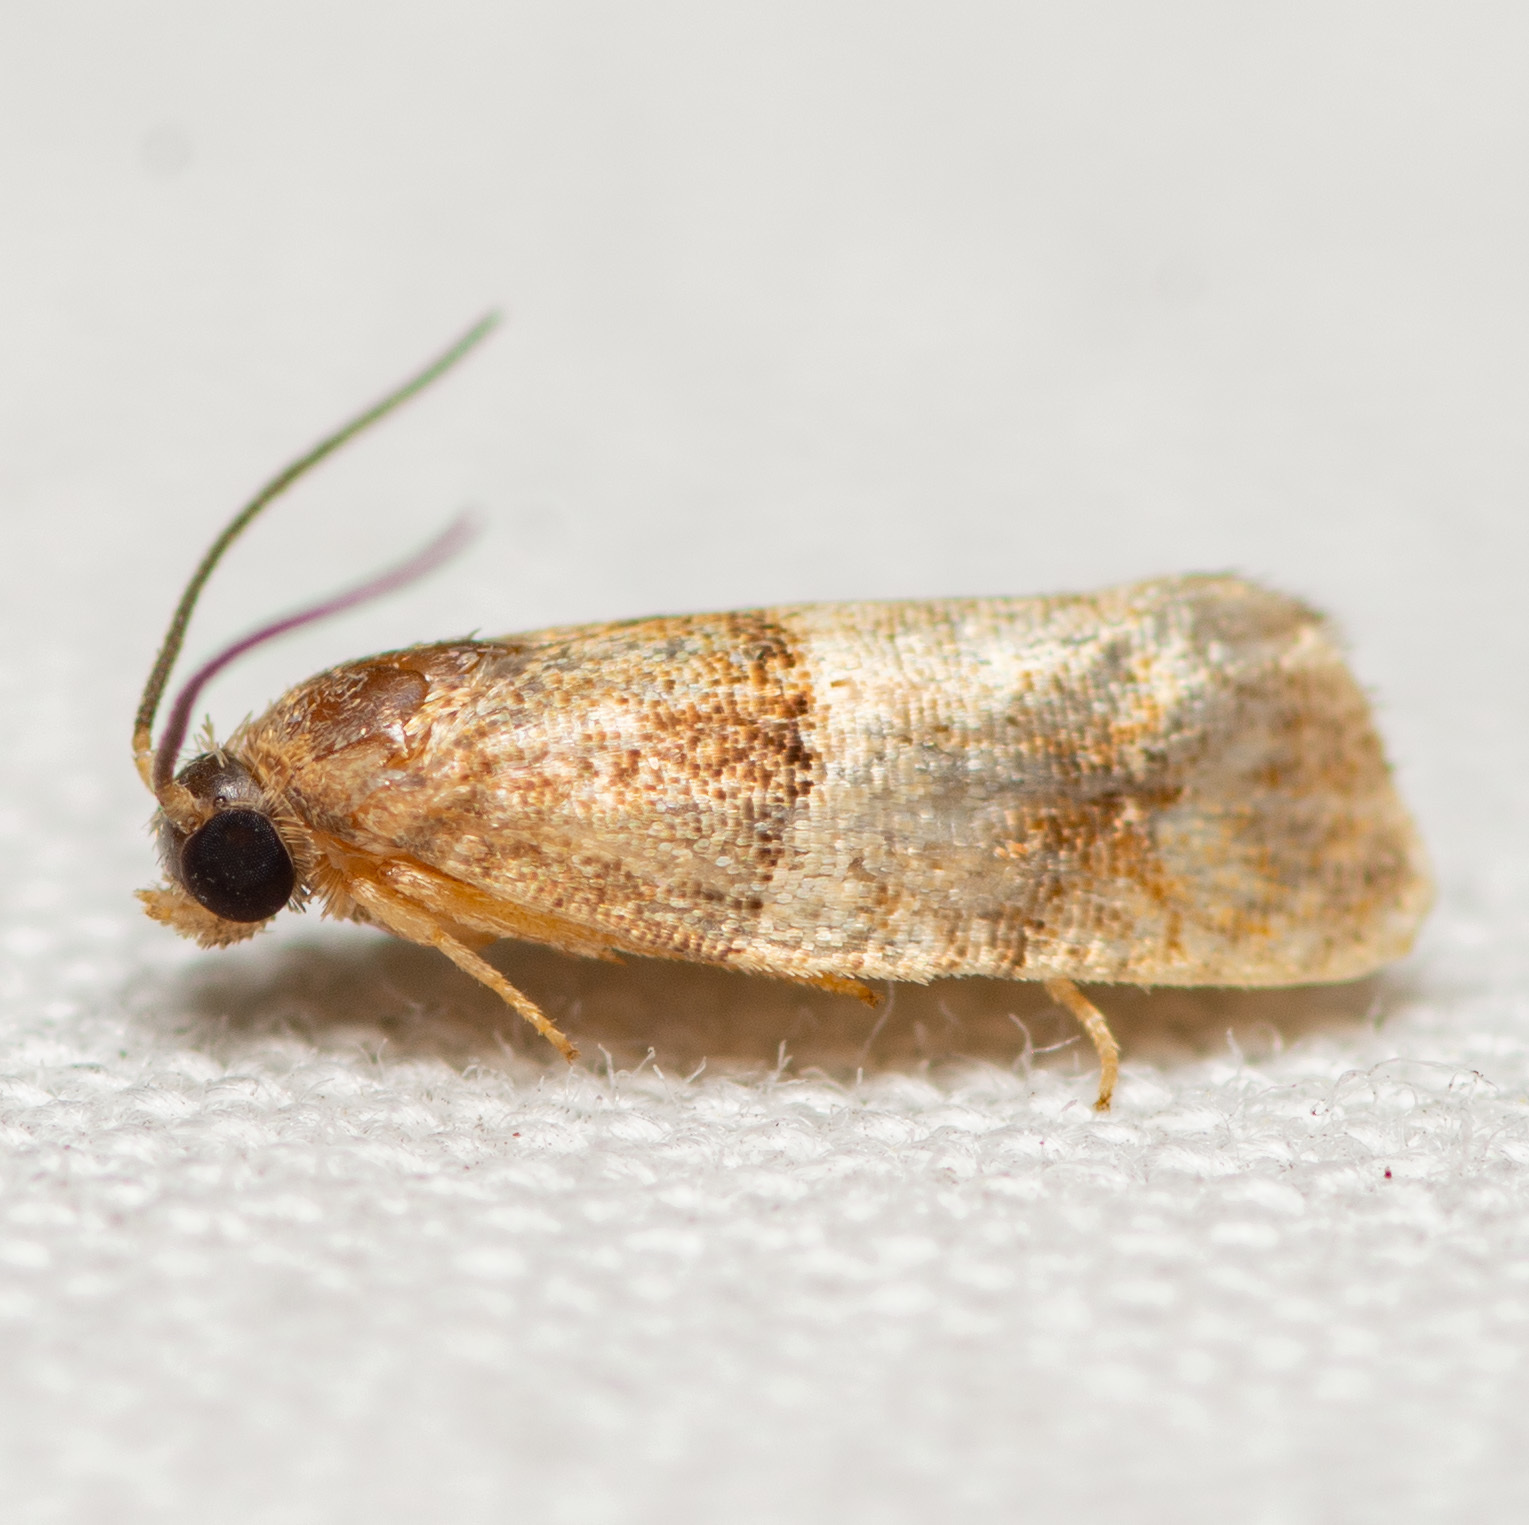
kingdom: Animalia
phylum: Arthropoda
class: Insecta
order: Lepidoptera
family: Tortricidae
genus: Larisa
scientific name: Larisa subsolana
